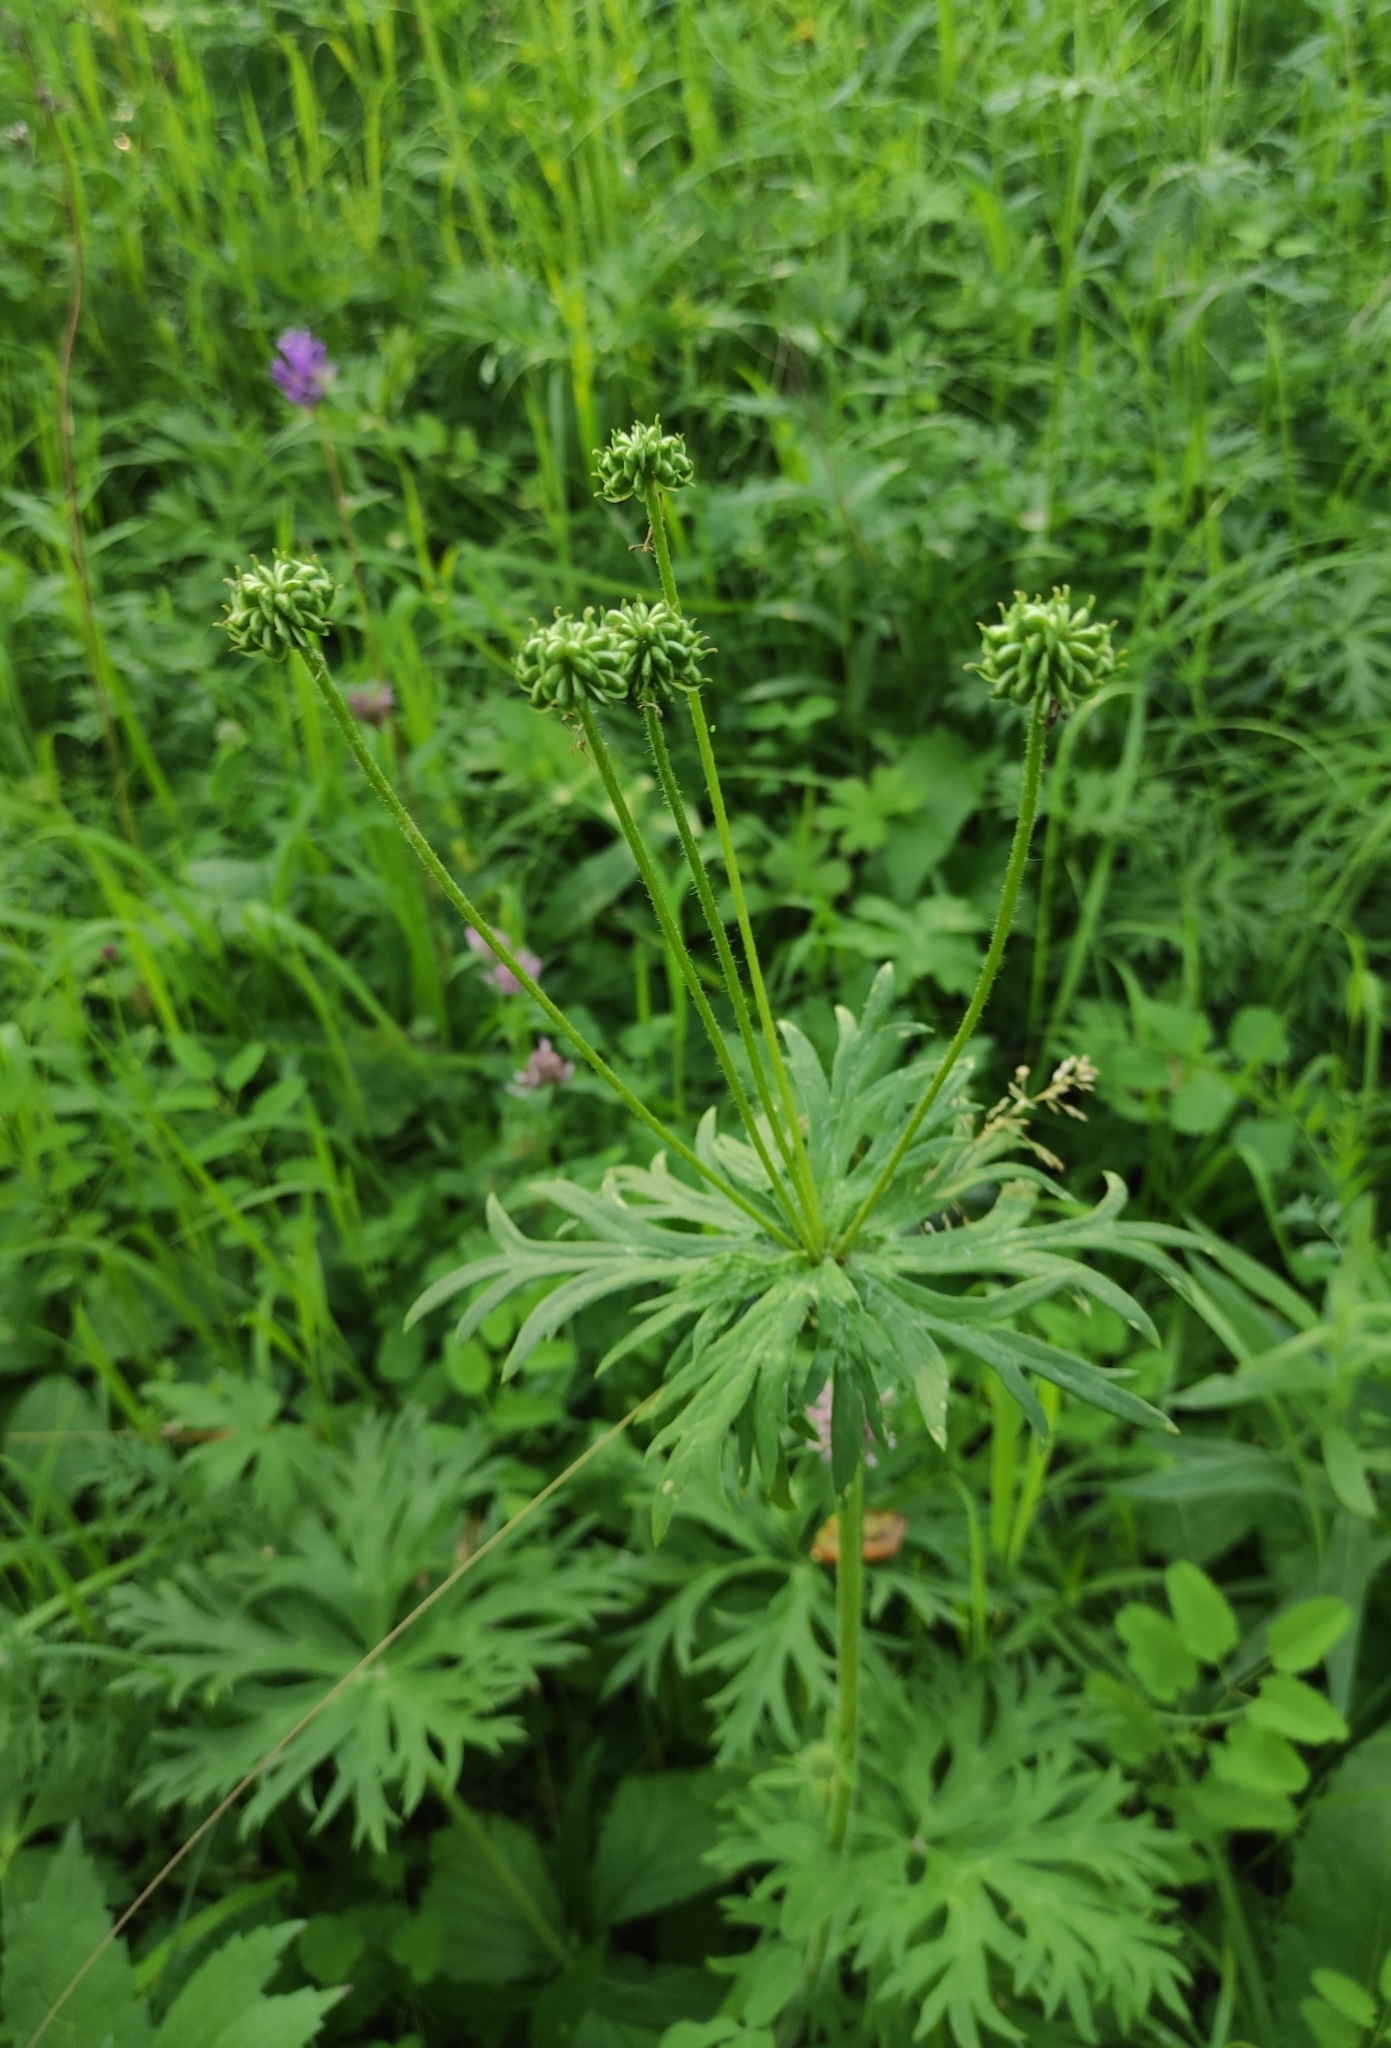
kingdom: Plantae
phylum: Tracheophyta
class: Magnoliopsida
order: Ranunculales
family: Ranunculaceae
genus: Anemonastrum
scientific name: Anemonastrum narcissiflorum
